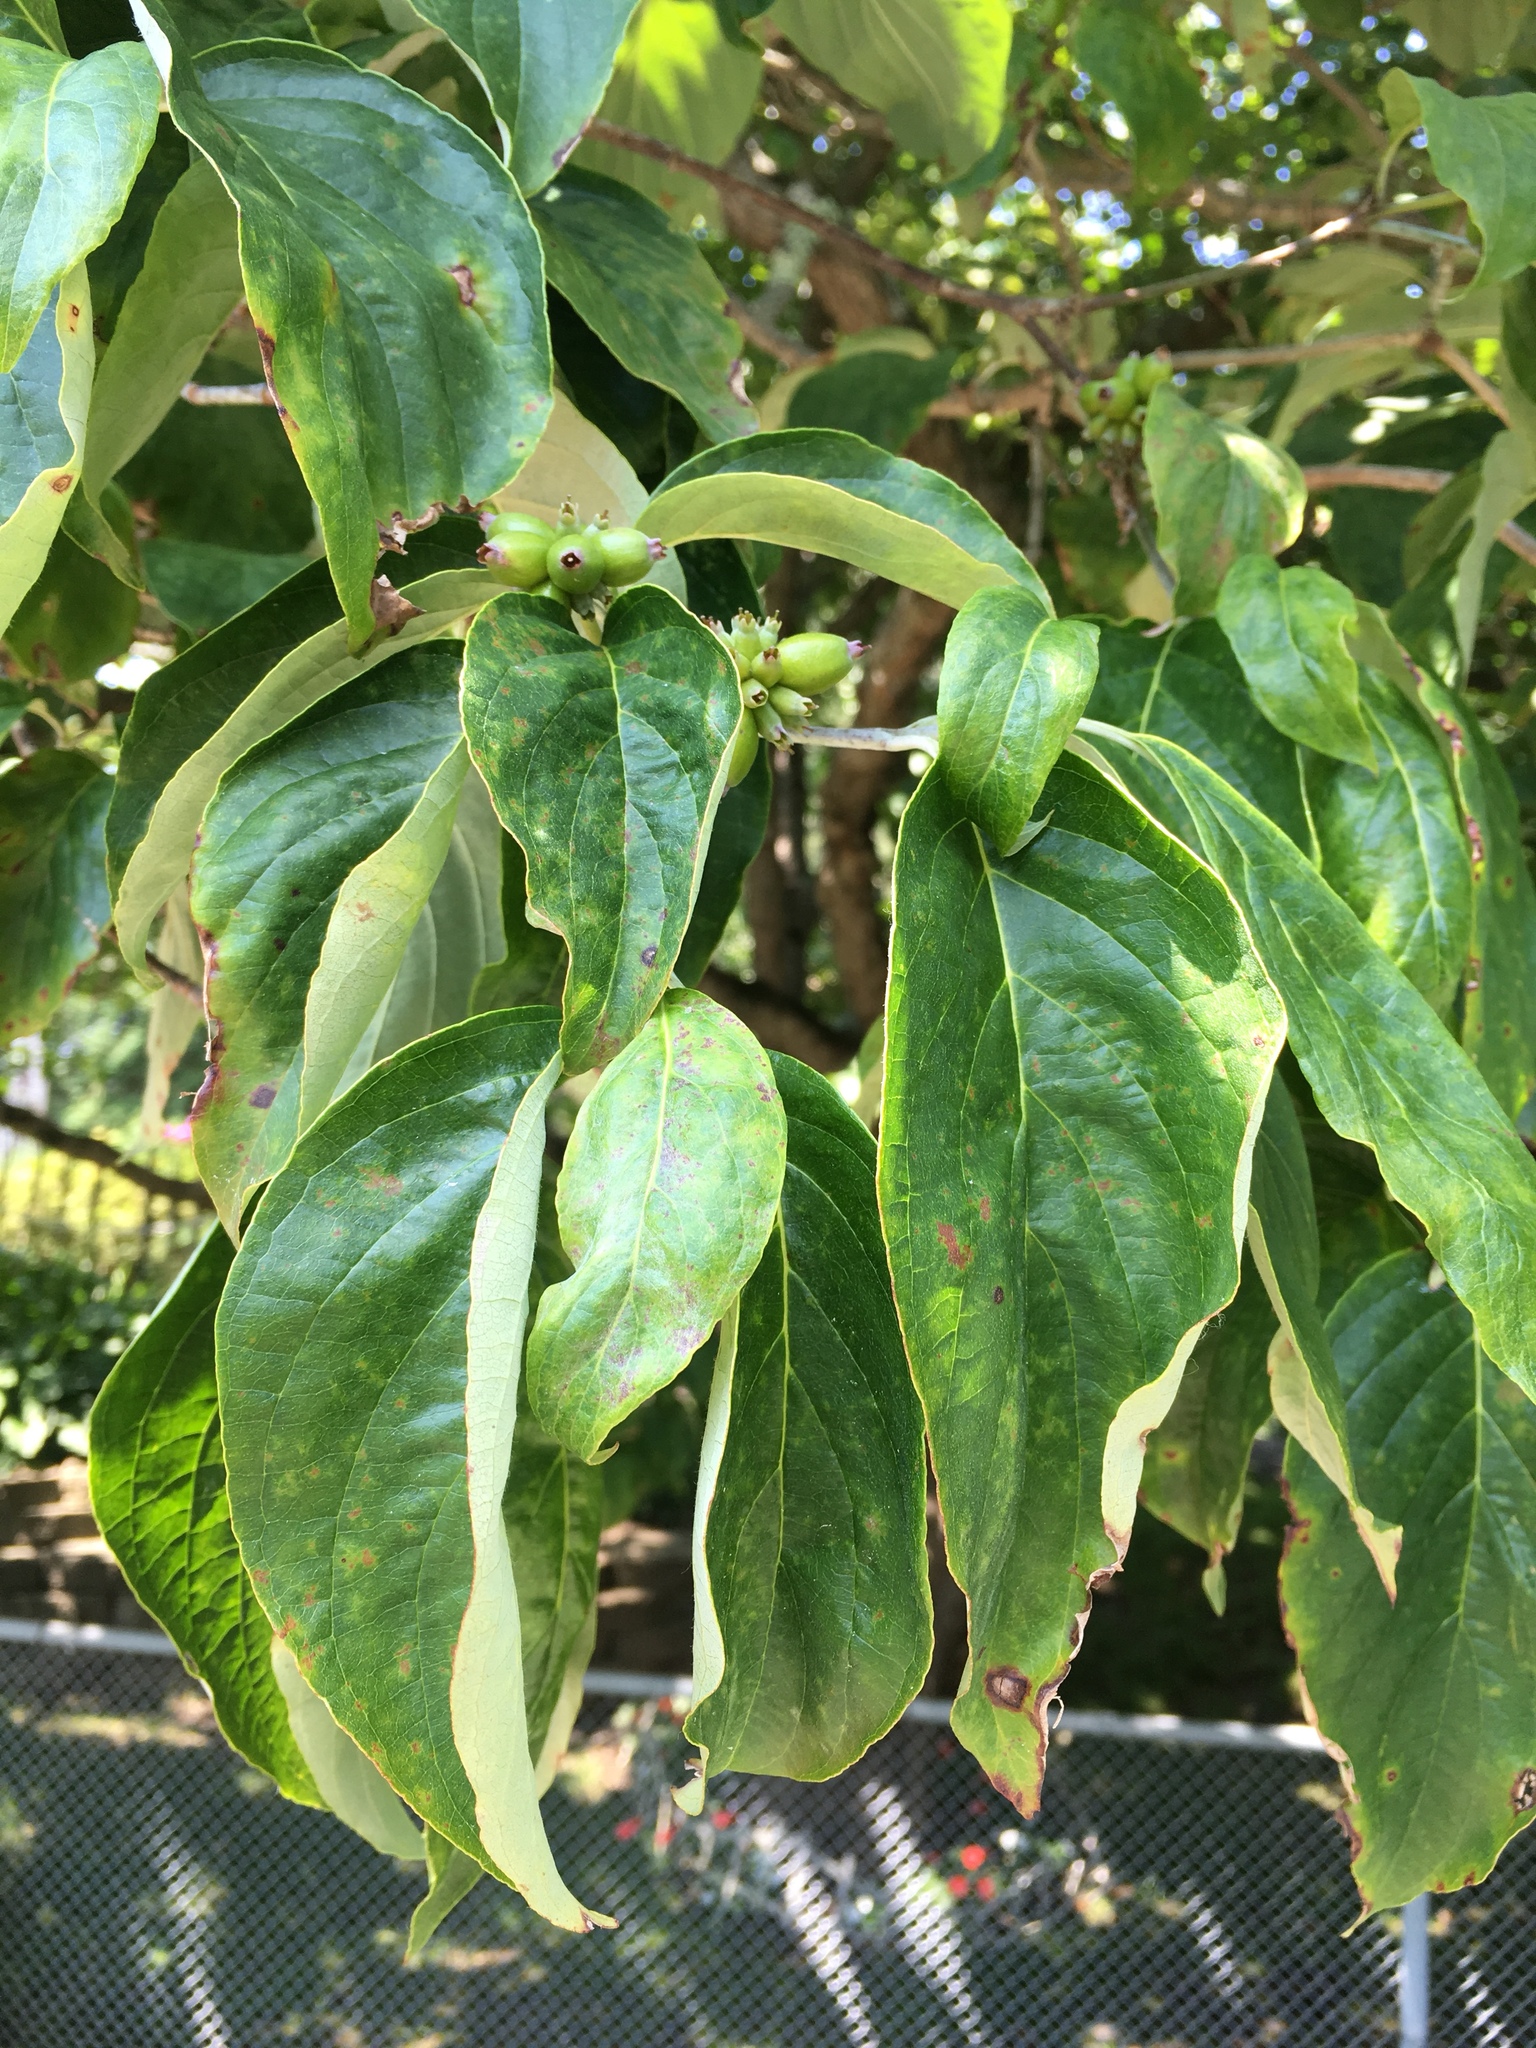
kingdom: Plantae
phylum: Tracheophyta
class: Magnoliopsida
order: Cornales
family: Cornaceae
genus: Cornus
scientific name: Cornus florida
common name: Flowering dogwood
